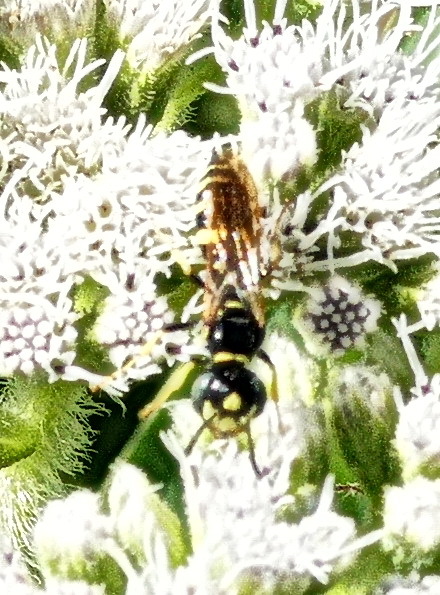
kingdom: Animalia
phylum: Arthropoda
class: Insecta
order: Hymenoptera
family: Crabronidae
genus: Philanthus
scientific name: Philanthus bilunatus
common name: Two moons beewolf
